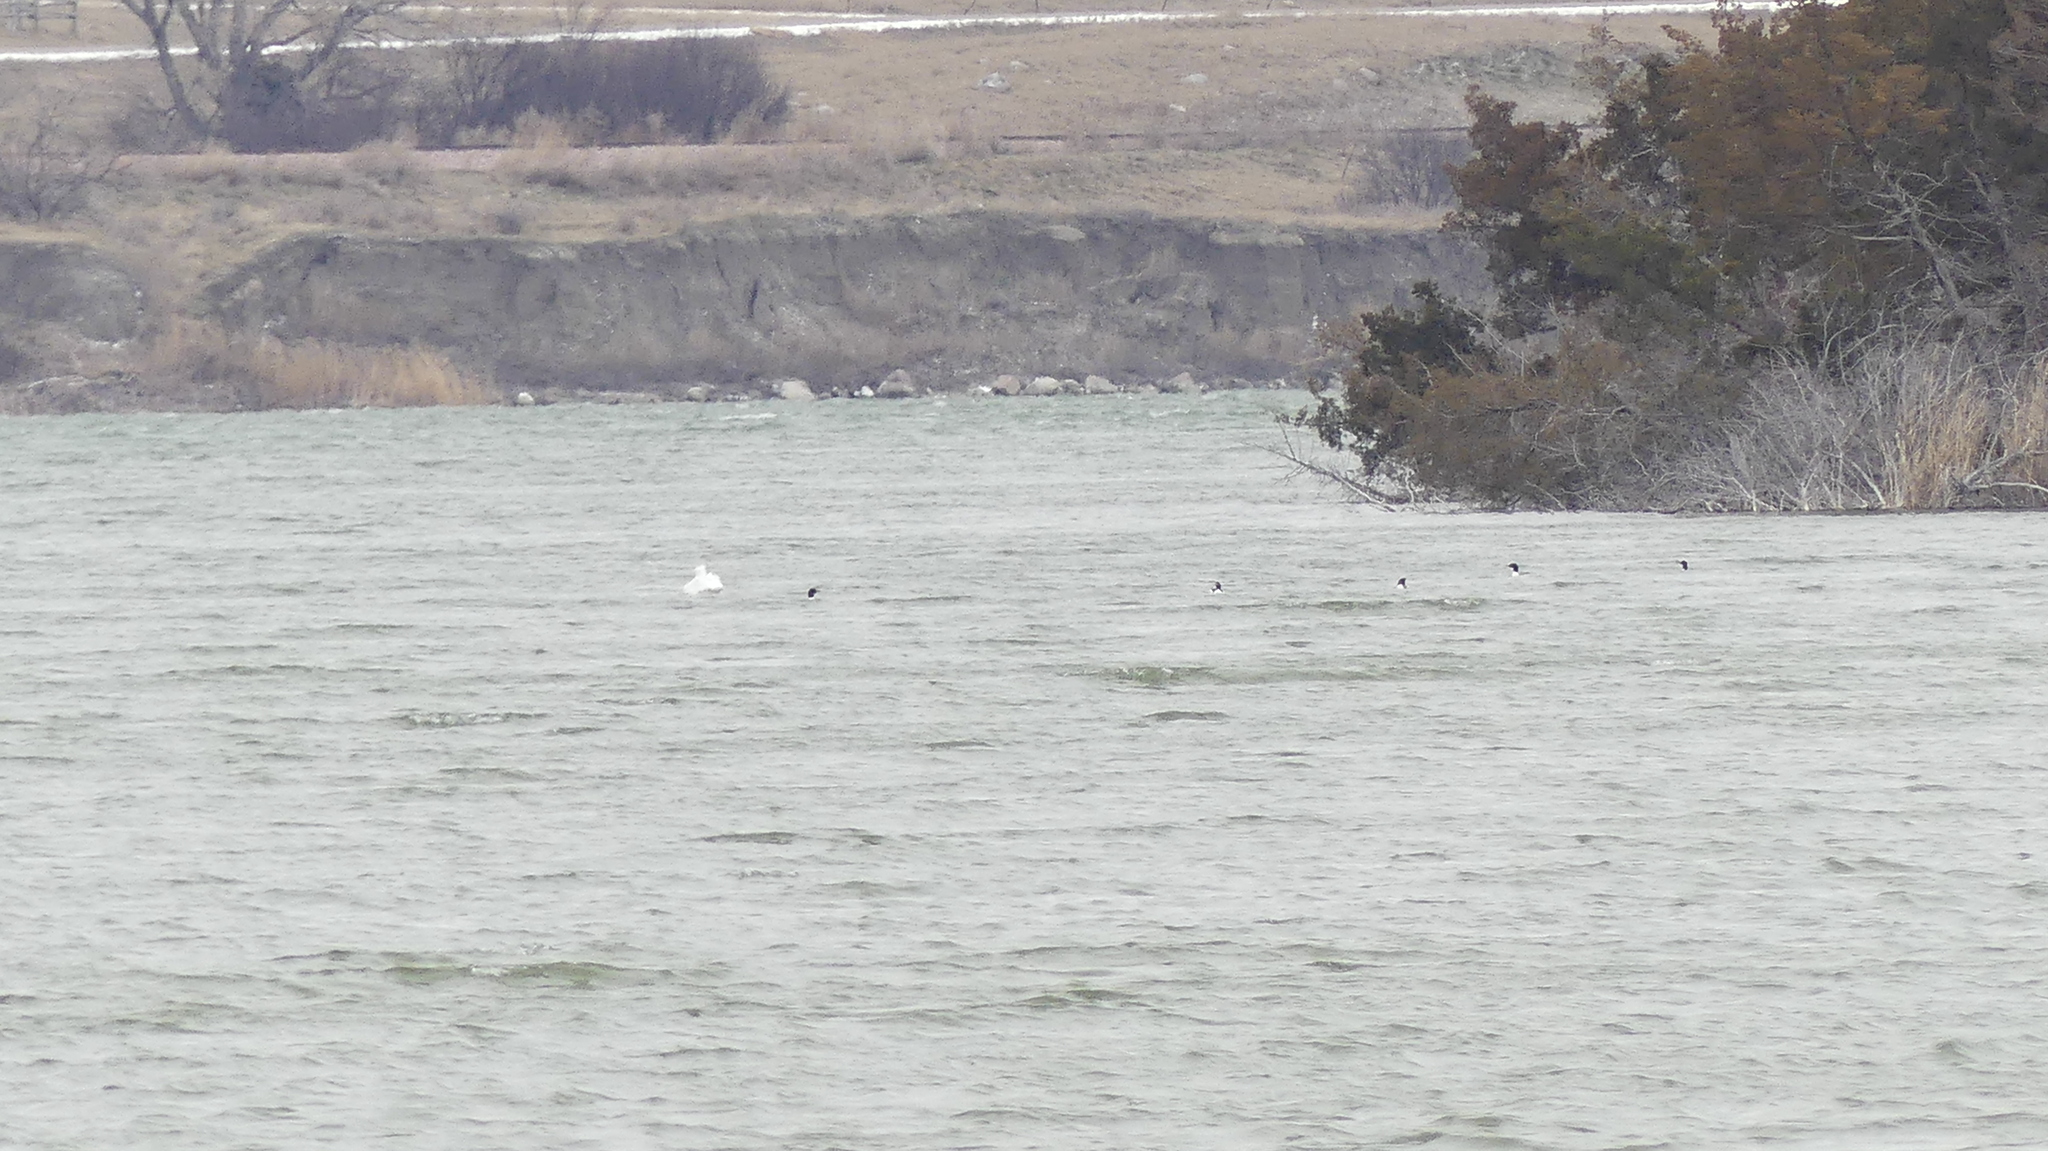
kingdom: Animalia
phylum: Chordata
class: Aves
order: Pelecaniformes
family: Pelecanidae
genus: Pelecanus
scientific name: Pelecanus erythrorhynchos
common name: American white pelican
